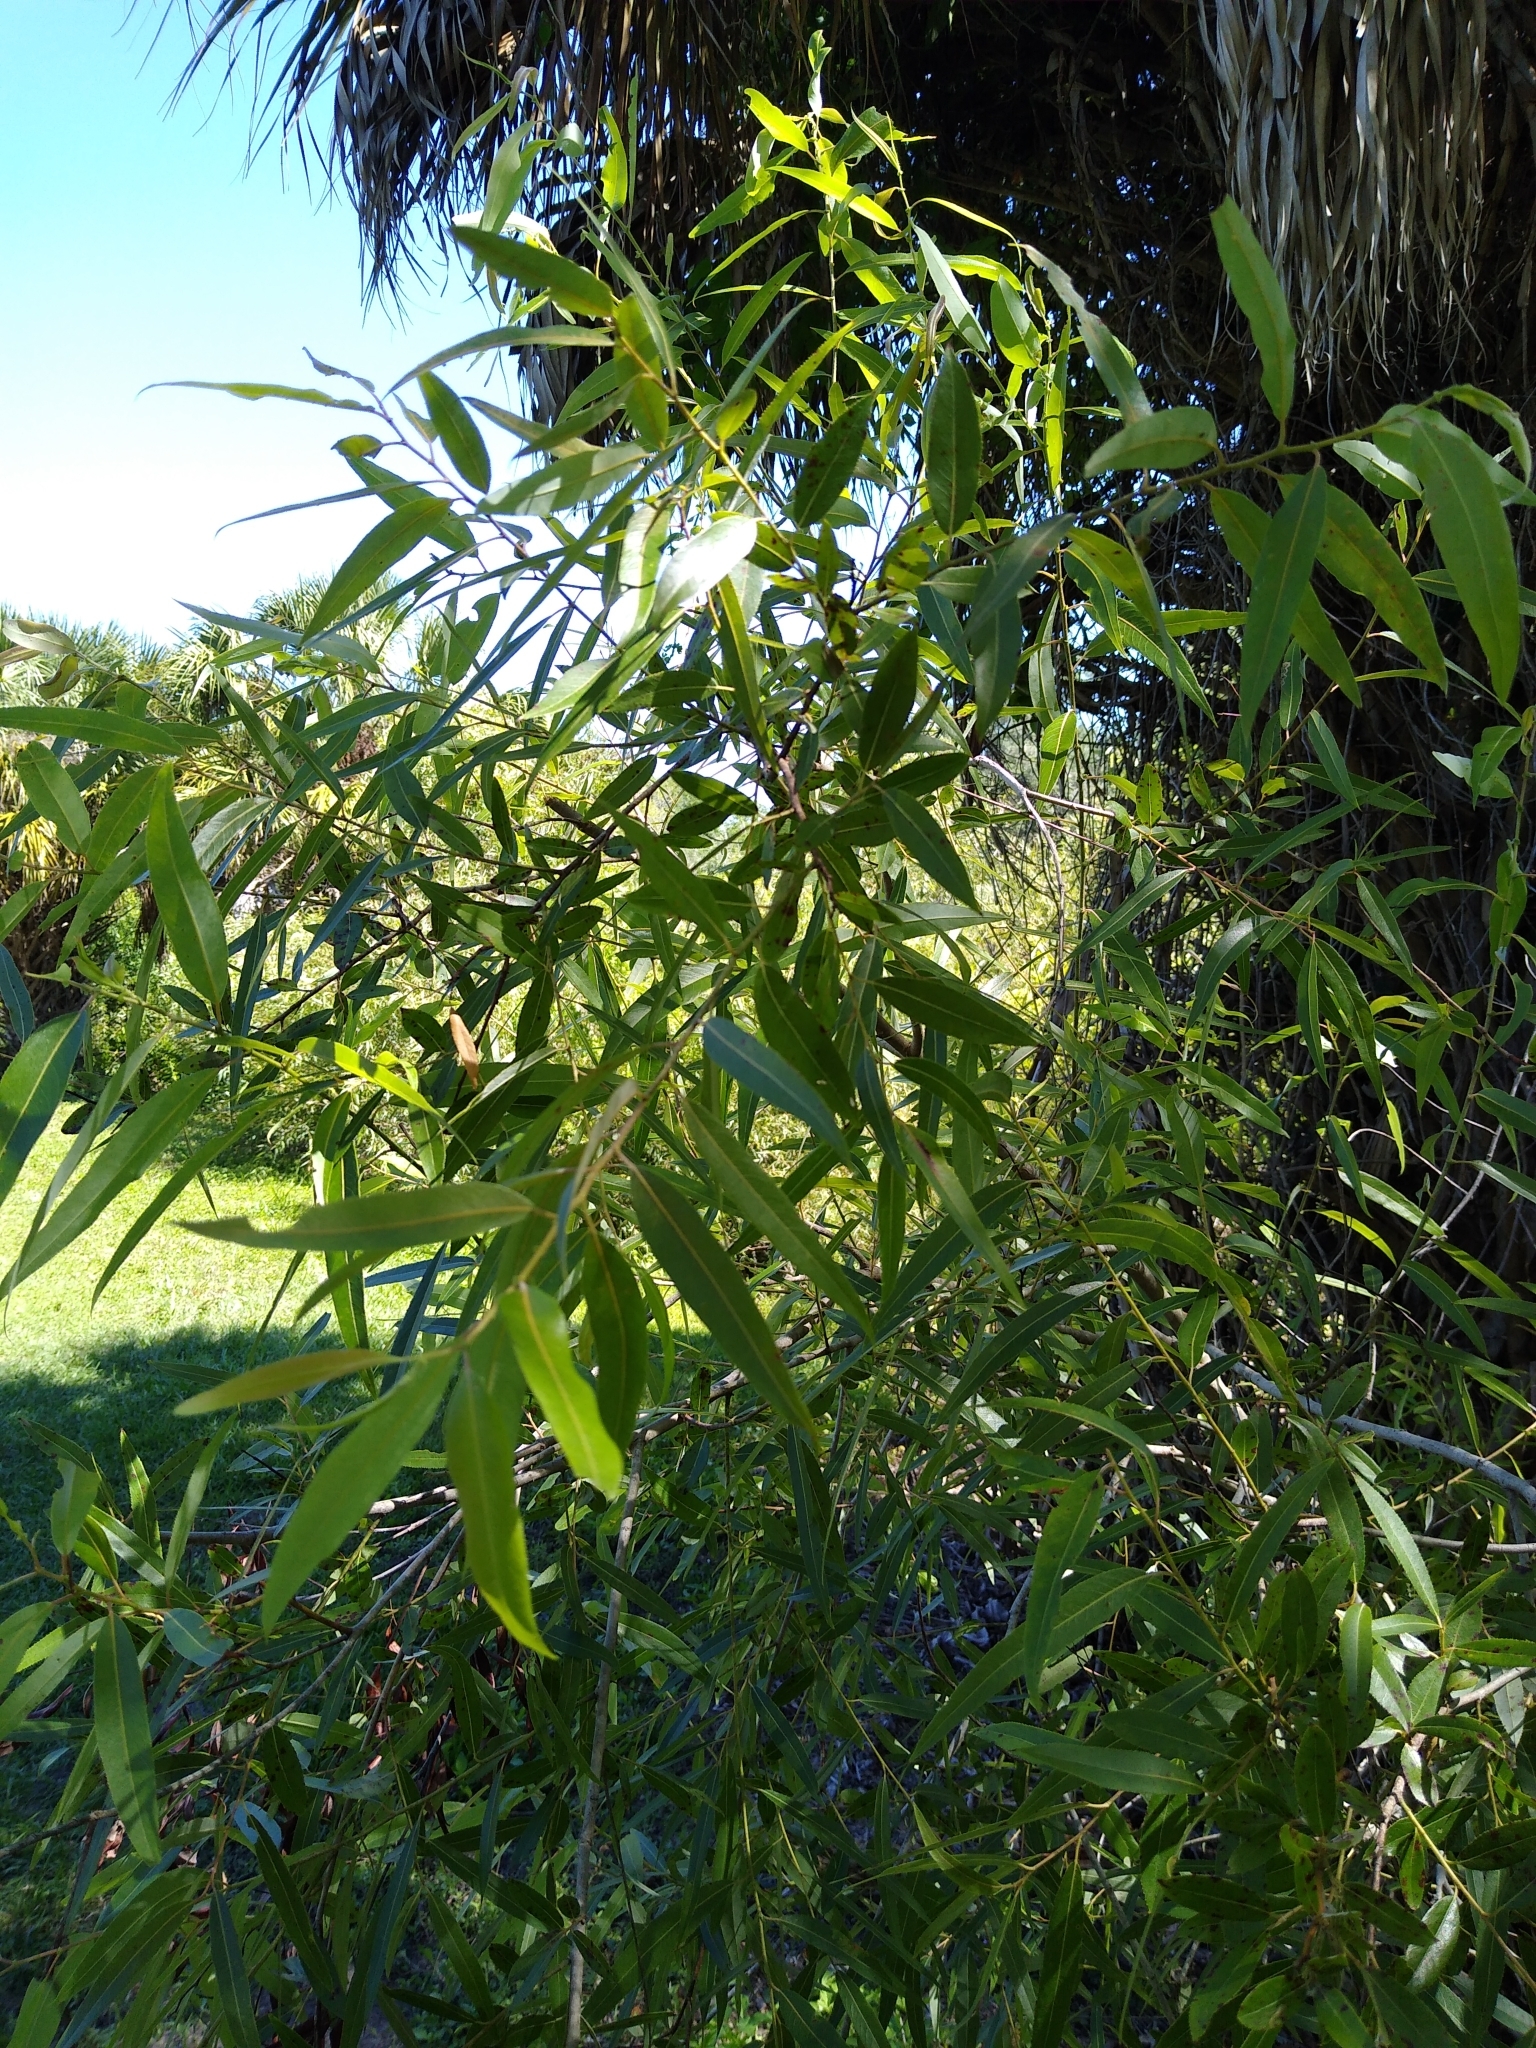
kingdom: Plantae
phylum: Tracheophyta
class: Magnoliopsida
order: Malpighiales
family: Salicaceae
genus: Salix
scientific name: Salix caroliniana
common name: Carolina willow
